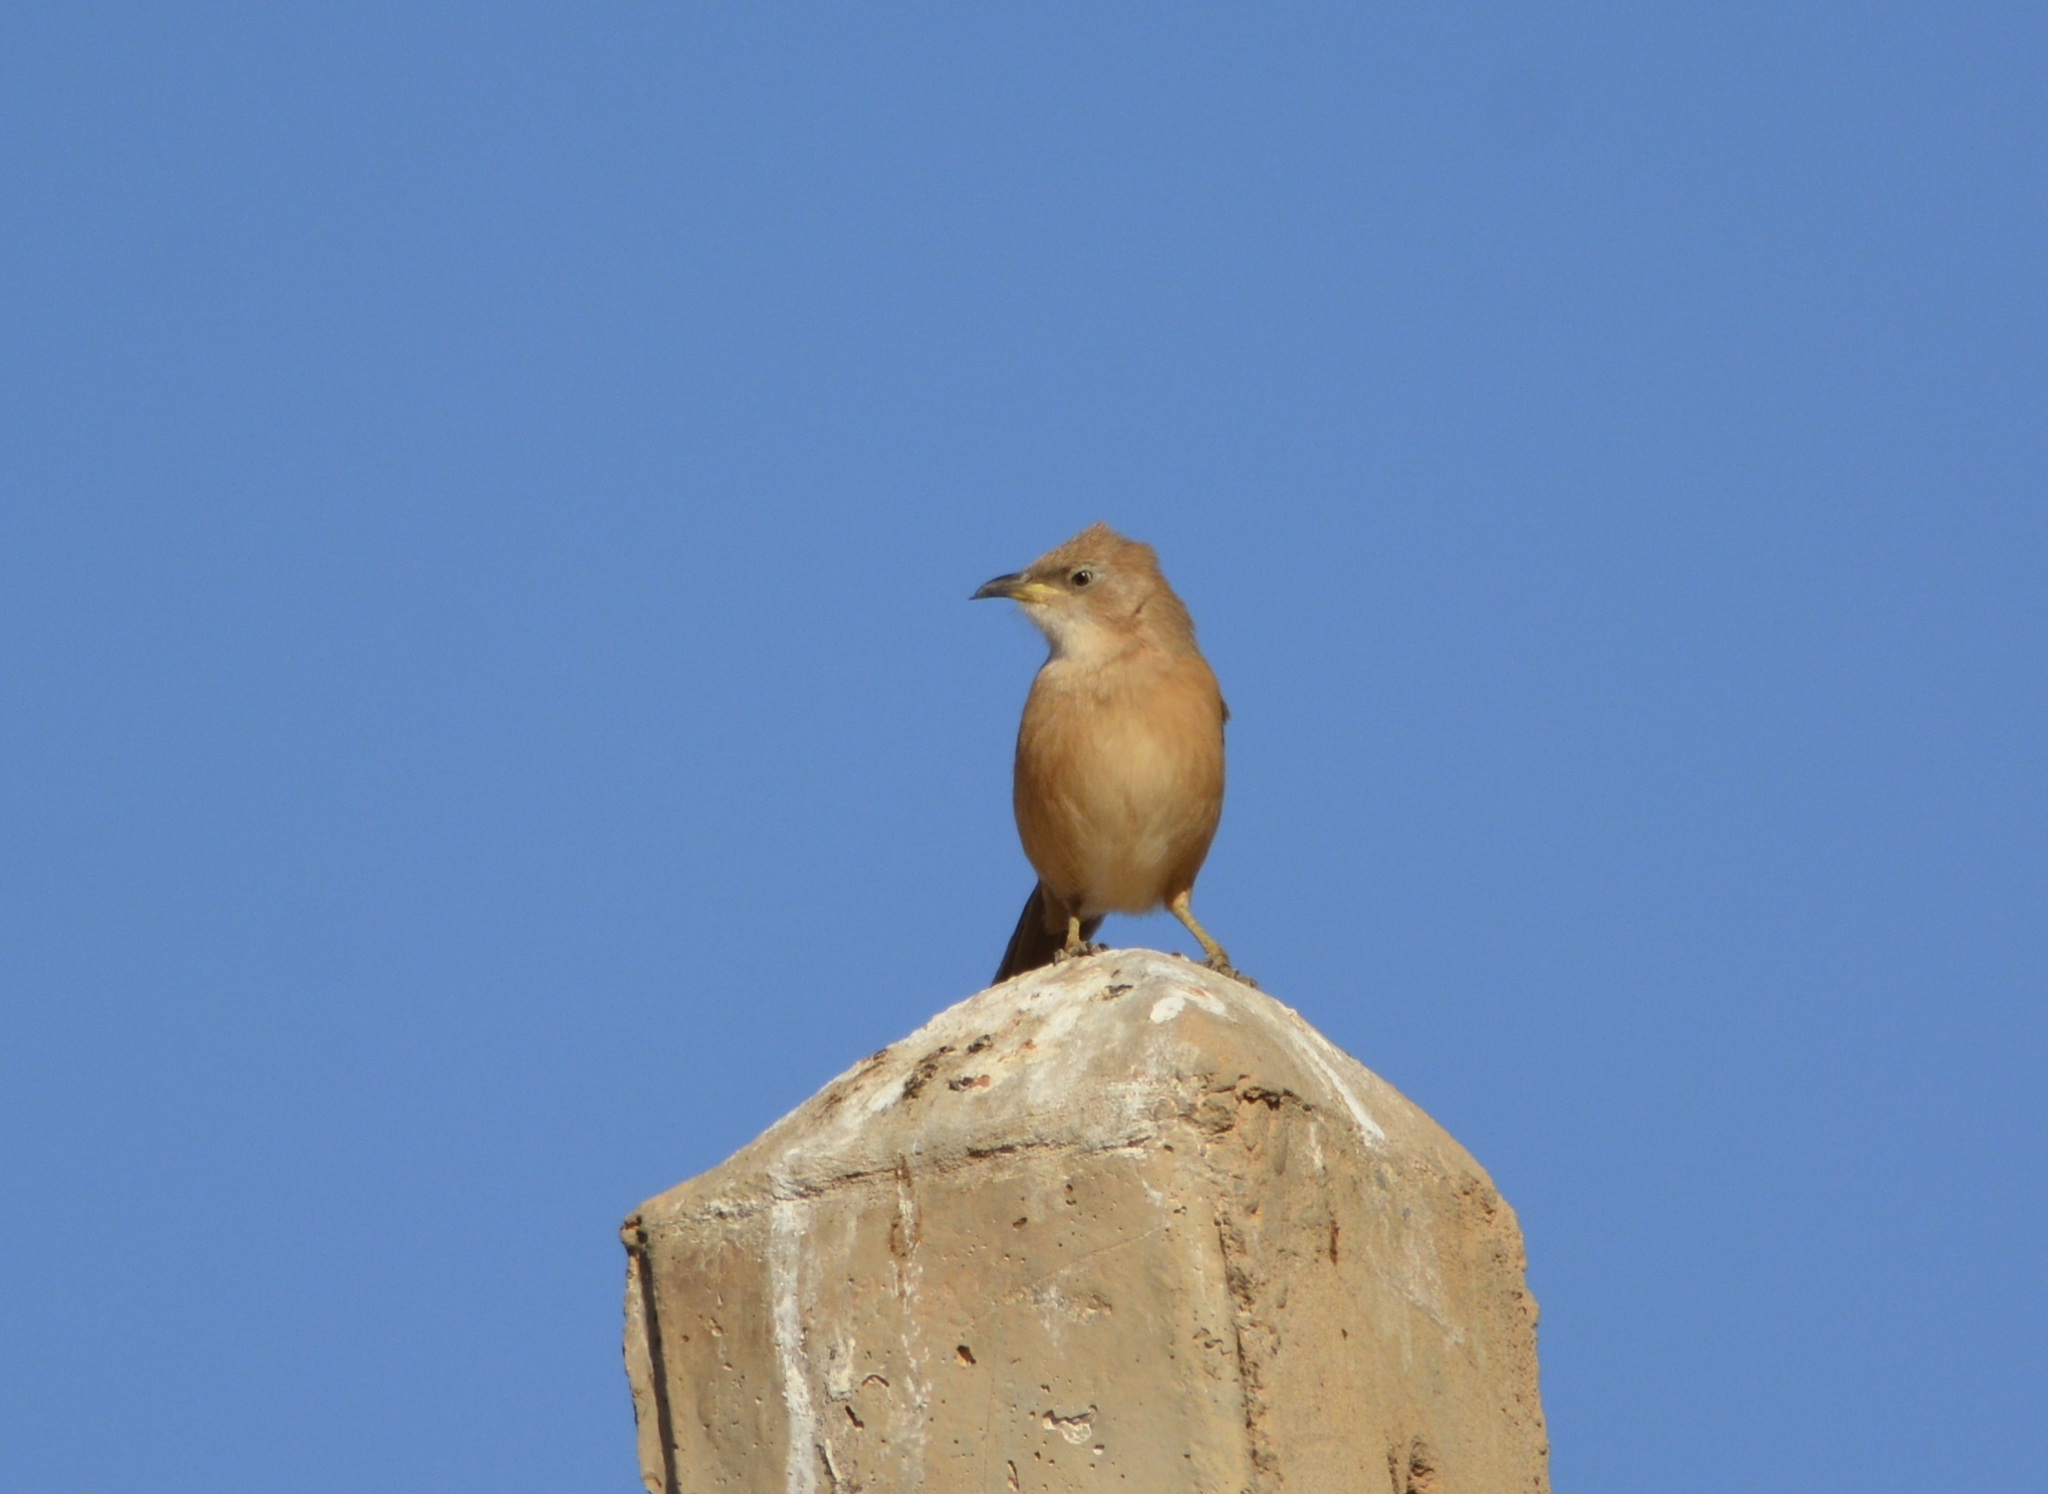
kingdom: Animalia
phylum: Chordata
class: Aves
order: Passeriformes
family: Leiothrichidae
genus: Turdoides
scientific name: Turdoides fulva
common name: Fulvous babbler
